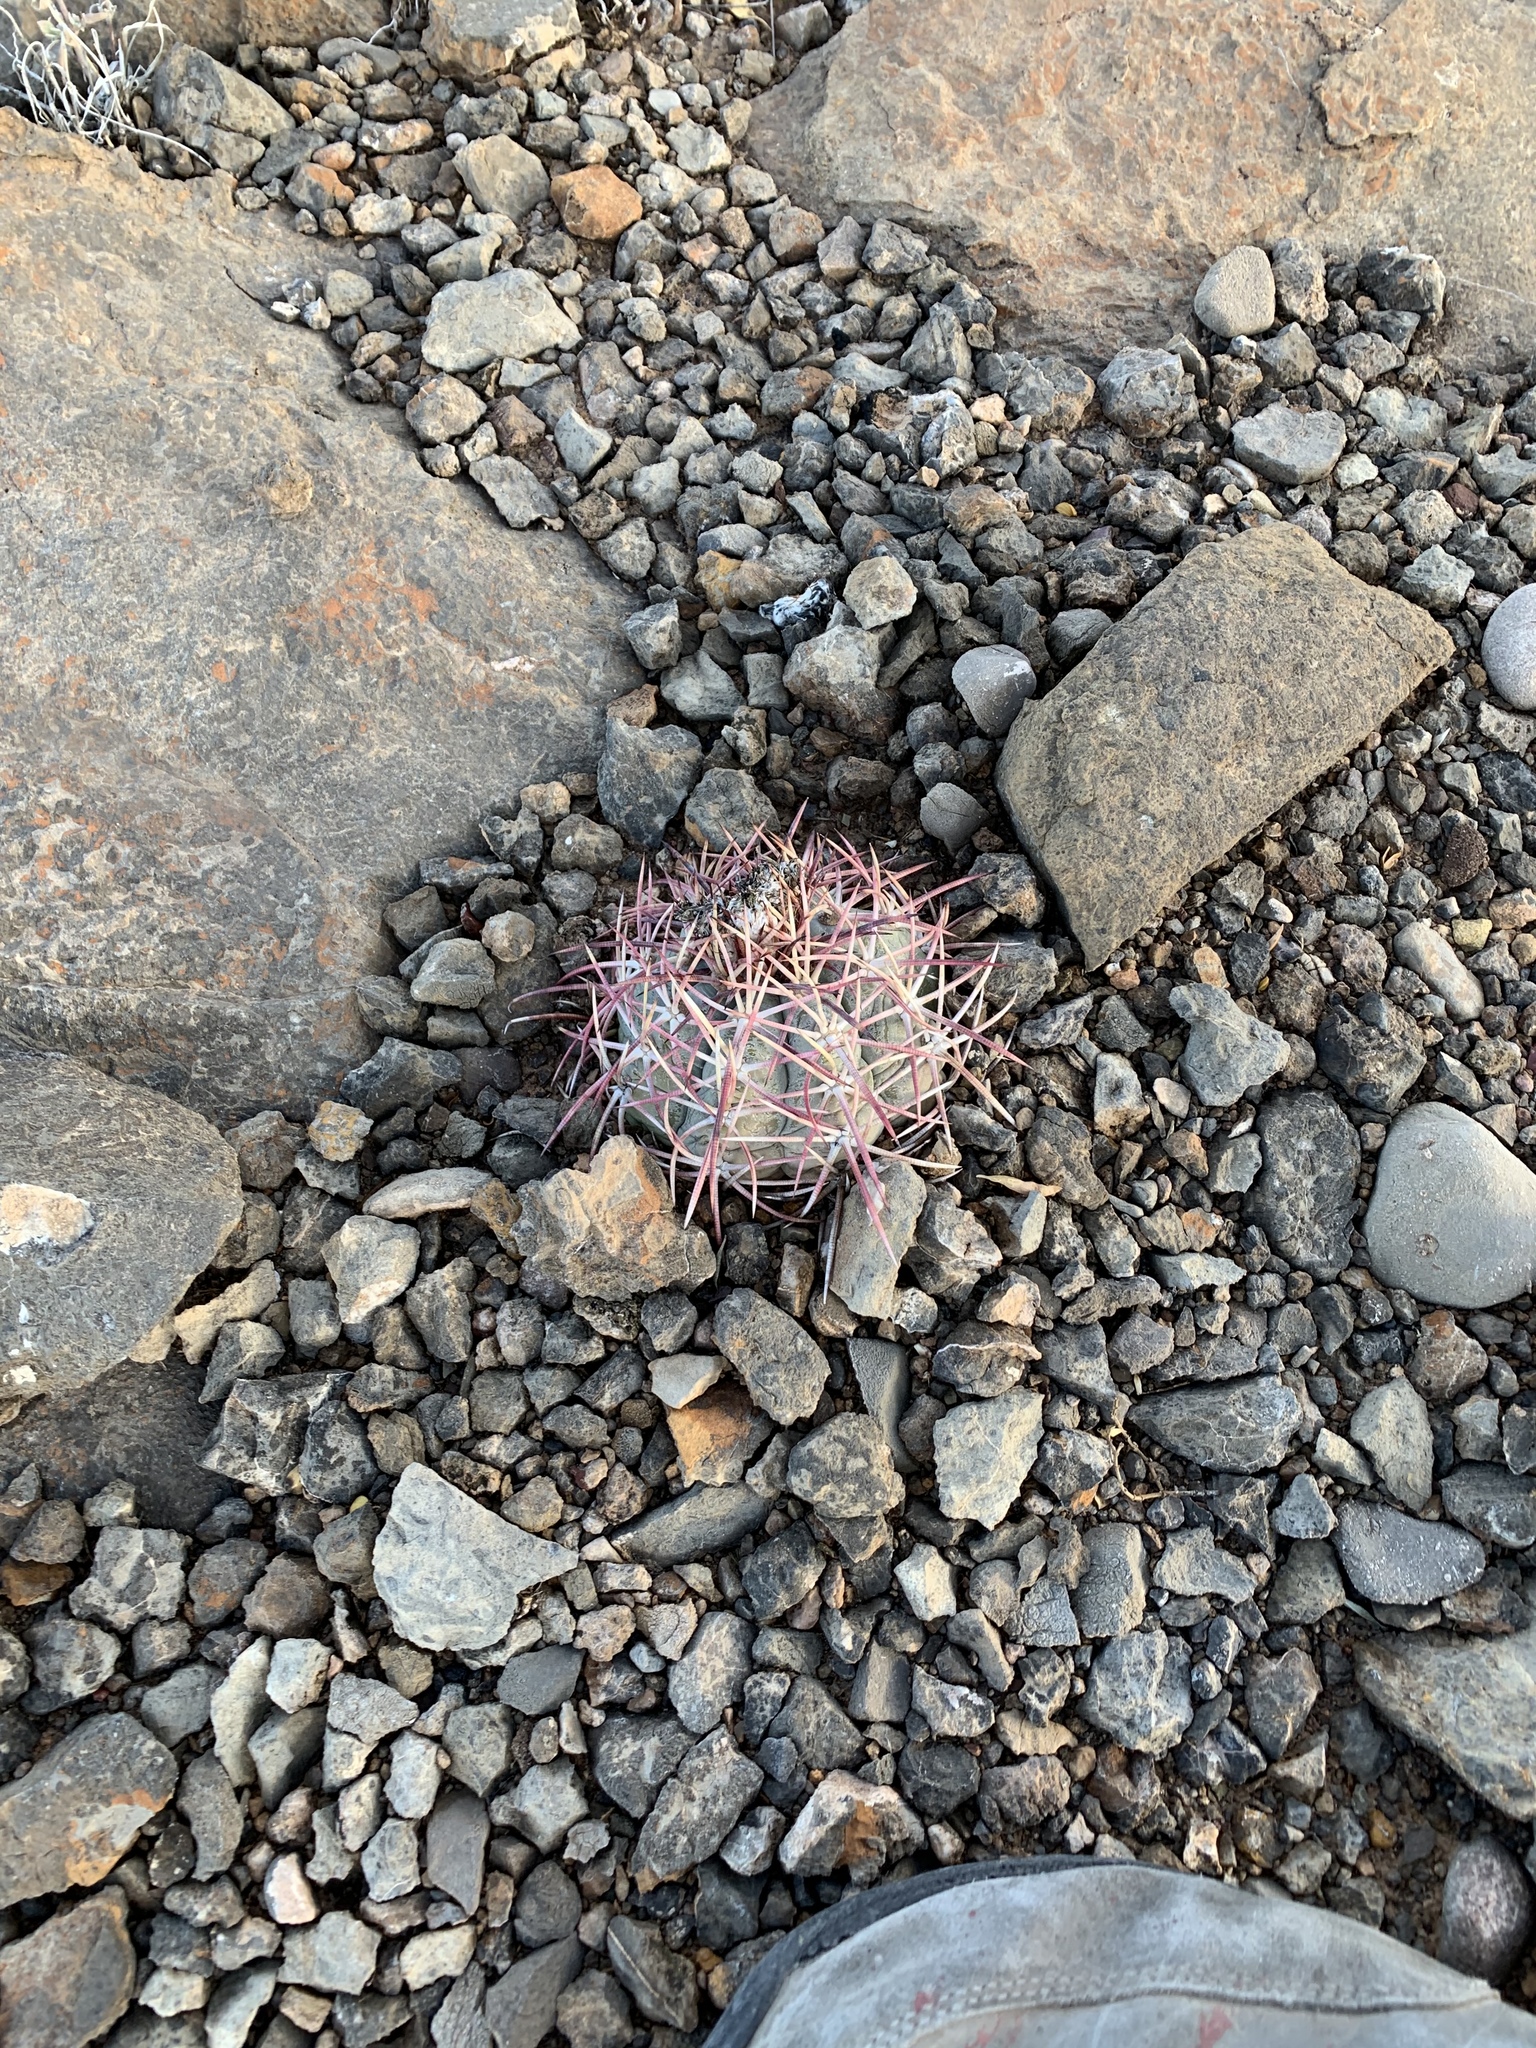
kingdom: Plantae
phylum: Tracheophyta
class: Magnoliopsida
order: Caryophyllales
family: Cactaceae
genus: Echinocactus
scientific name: Echinocactus horizonthalonius
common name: Devilshead
